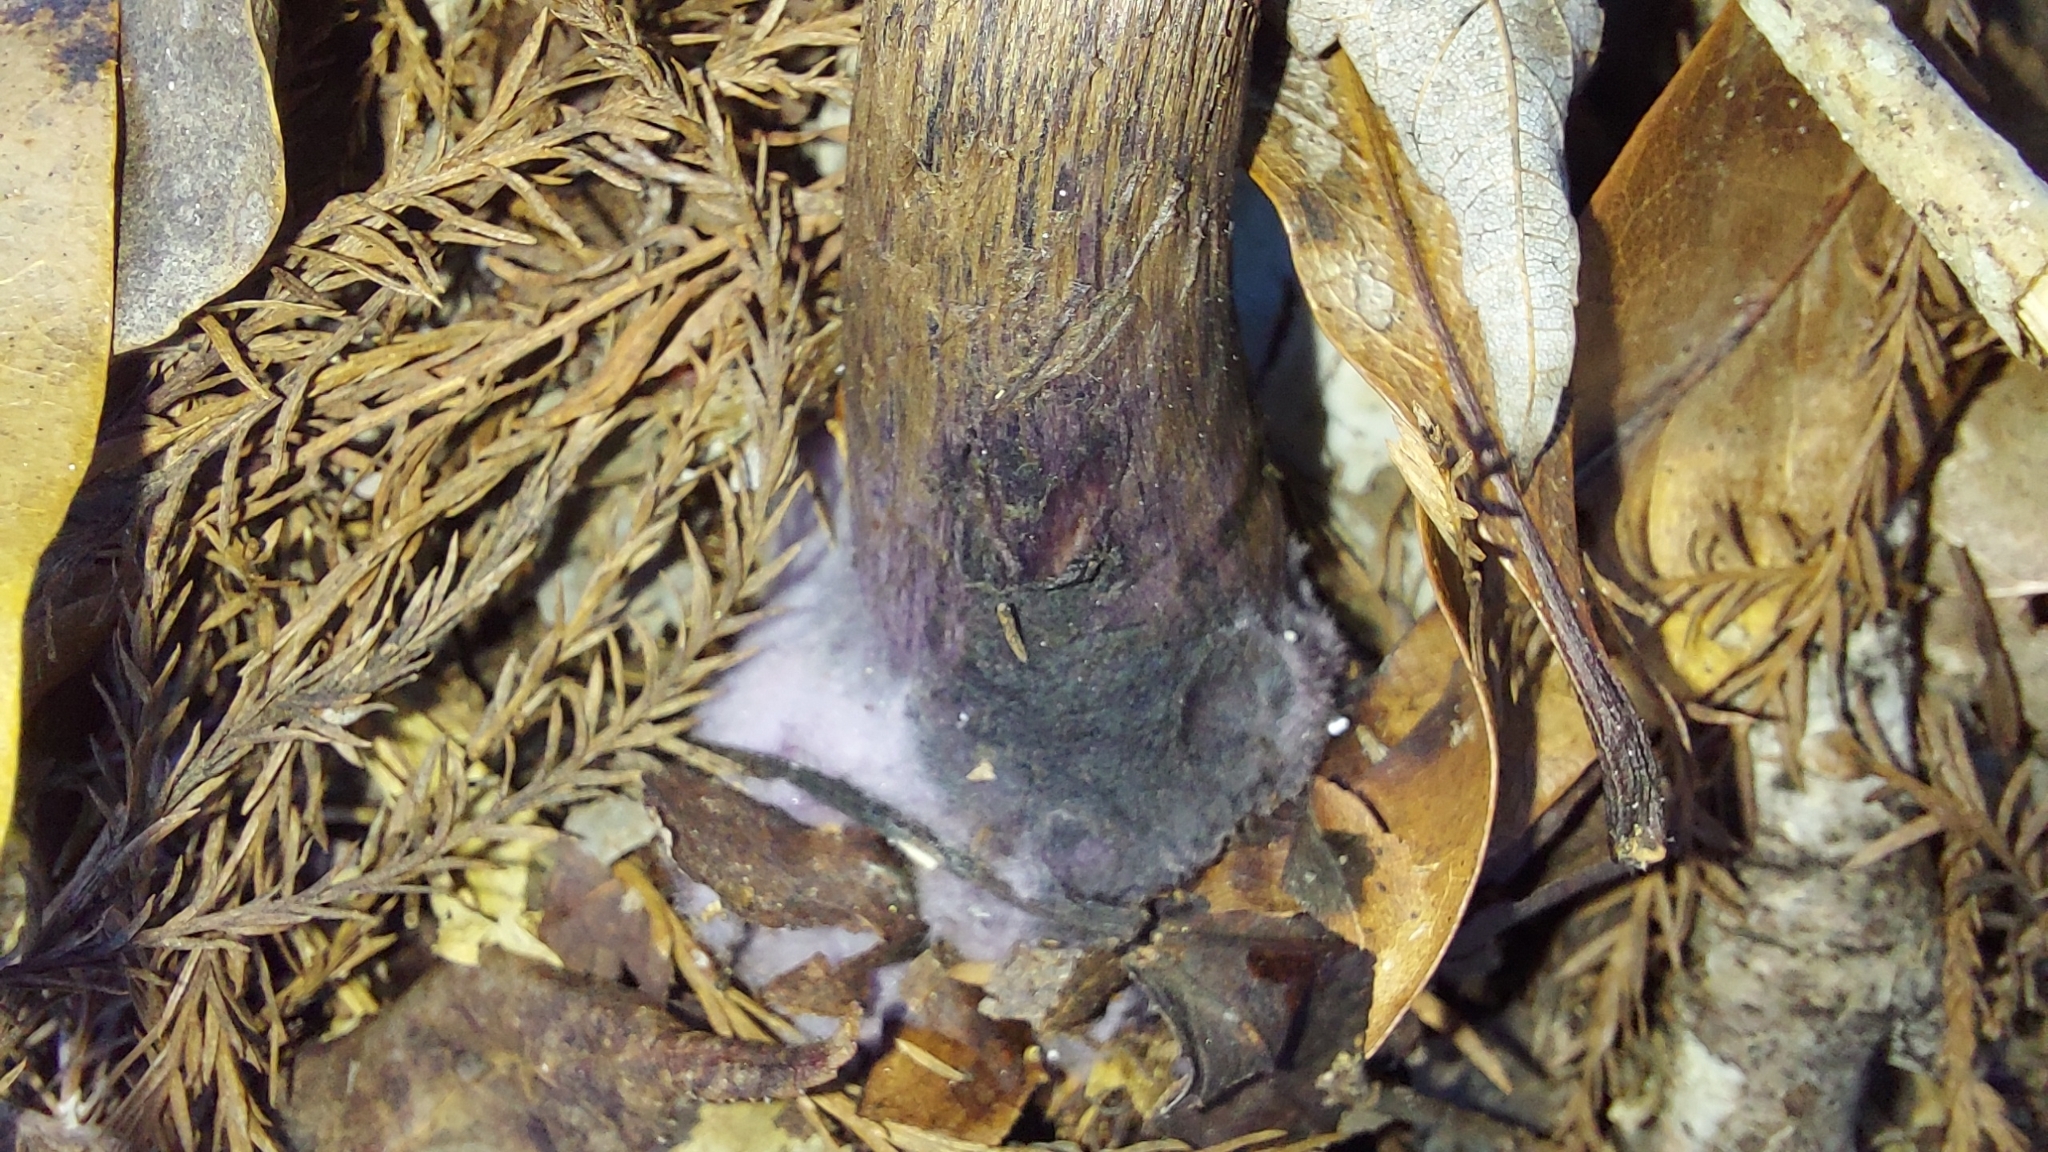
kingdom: Fungi
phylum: Basidiomycota
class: Agaricomycetes
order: Agaricales
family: Cortinariaceae
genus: Cortinarius
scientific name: Cortinarius violaceus
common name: Violet webcap
